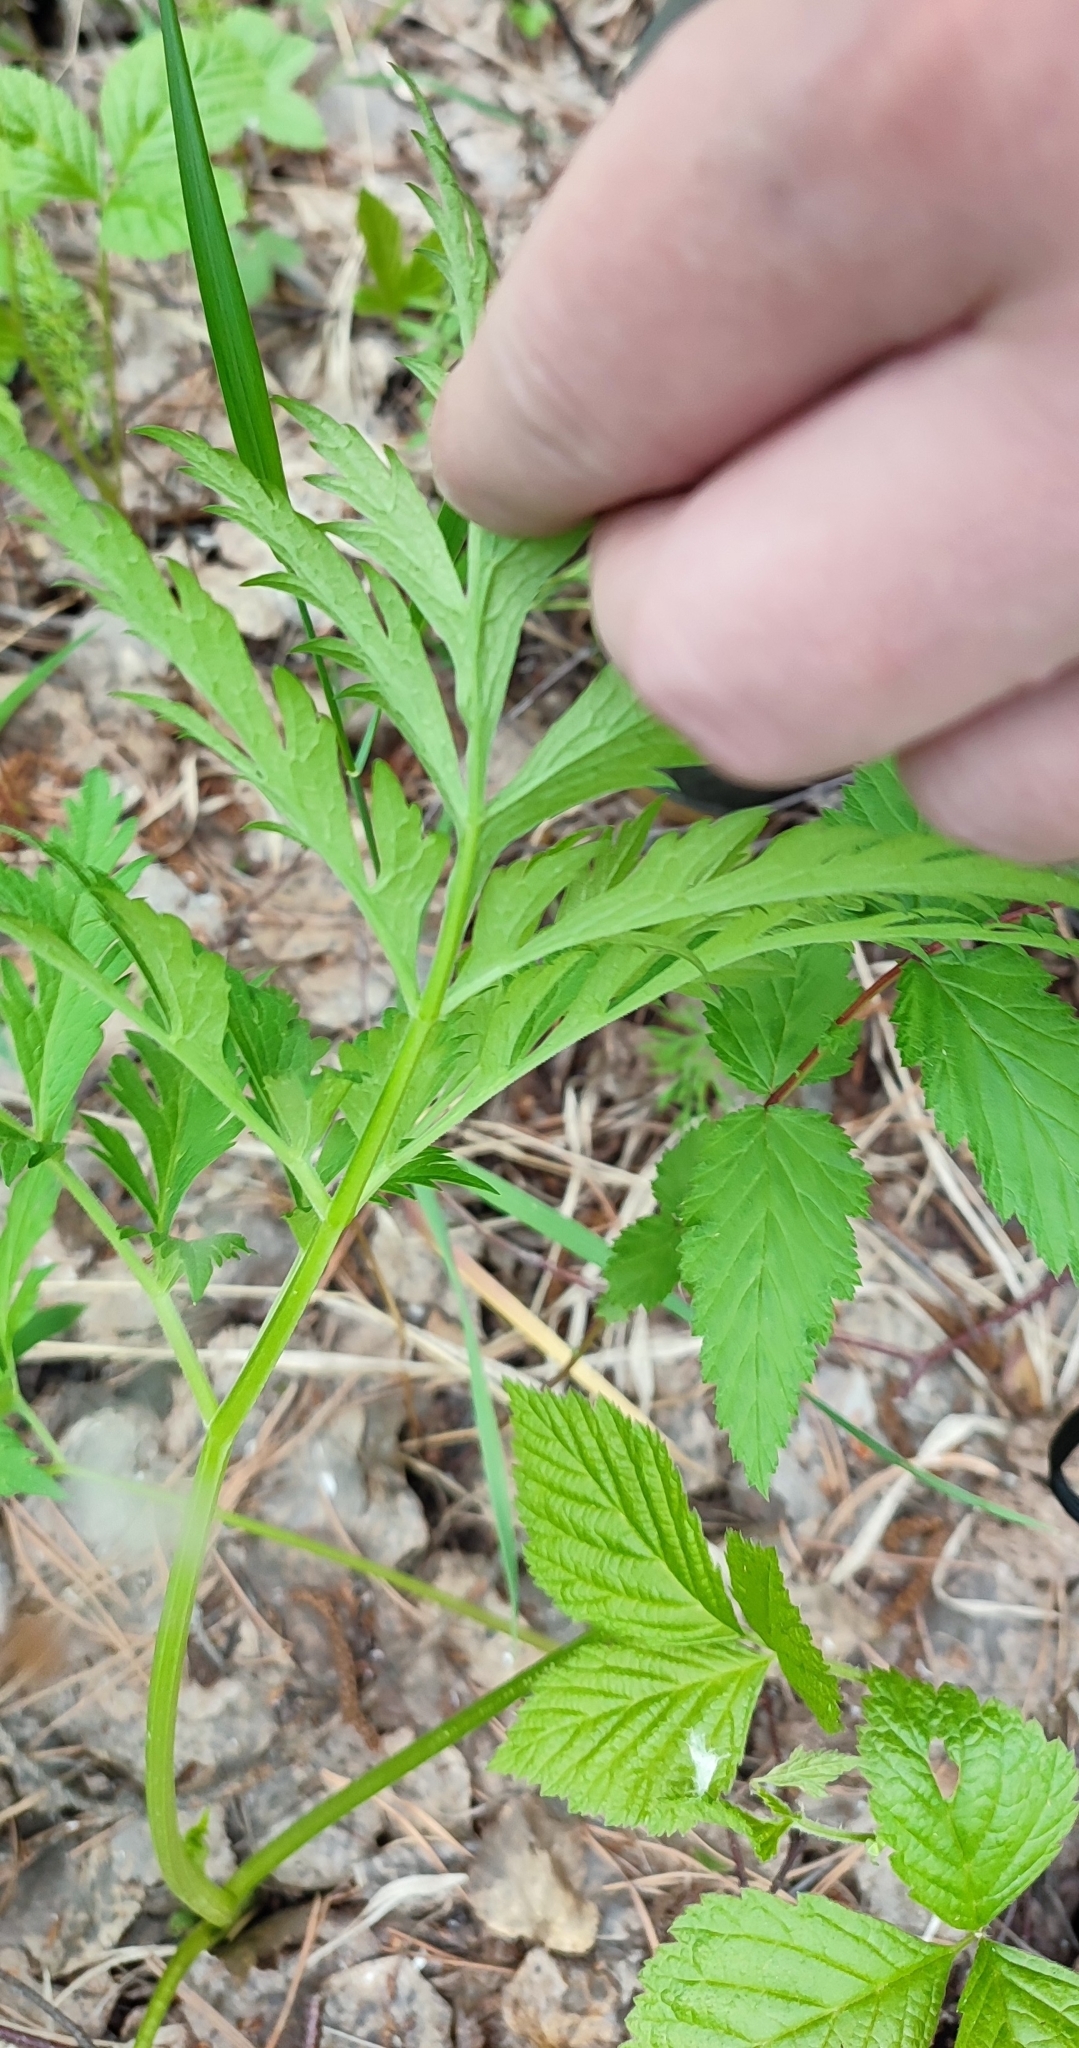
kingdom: Plantae
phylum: Tracheophyta
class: Magnoliopsida
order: Apiales
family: Apiaceae
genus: Pleurospermum
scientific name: Pleurospermum uralense
